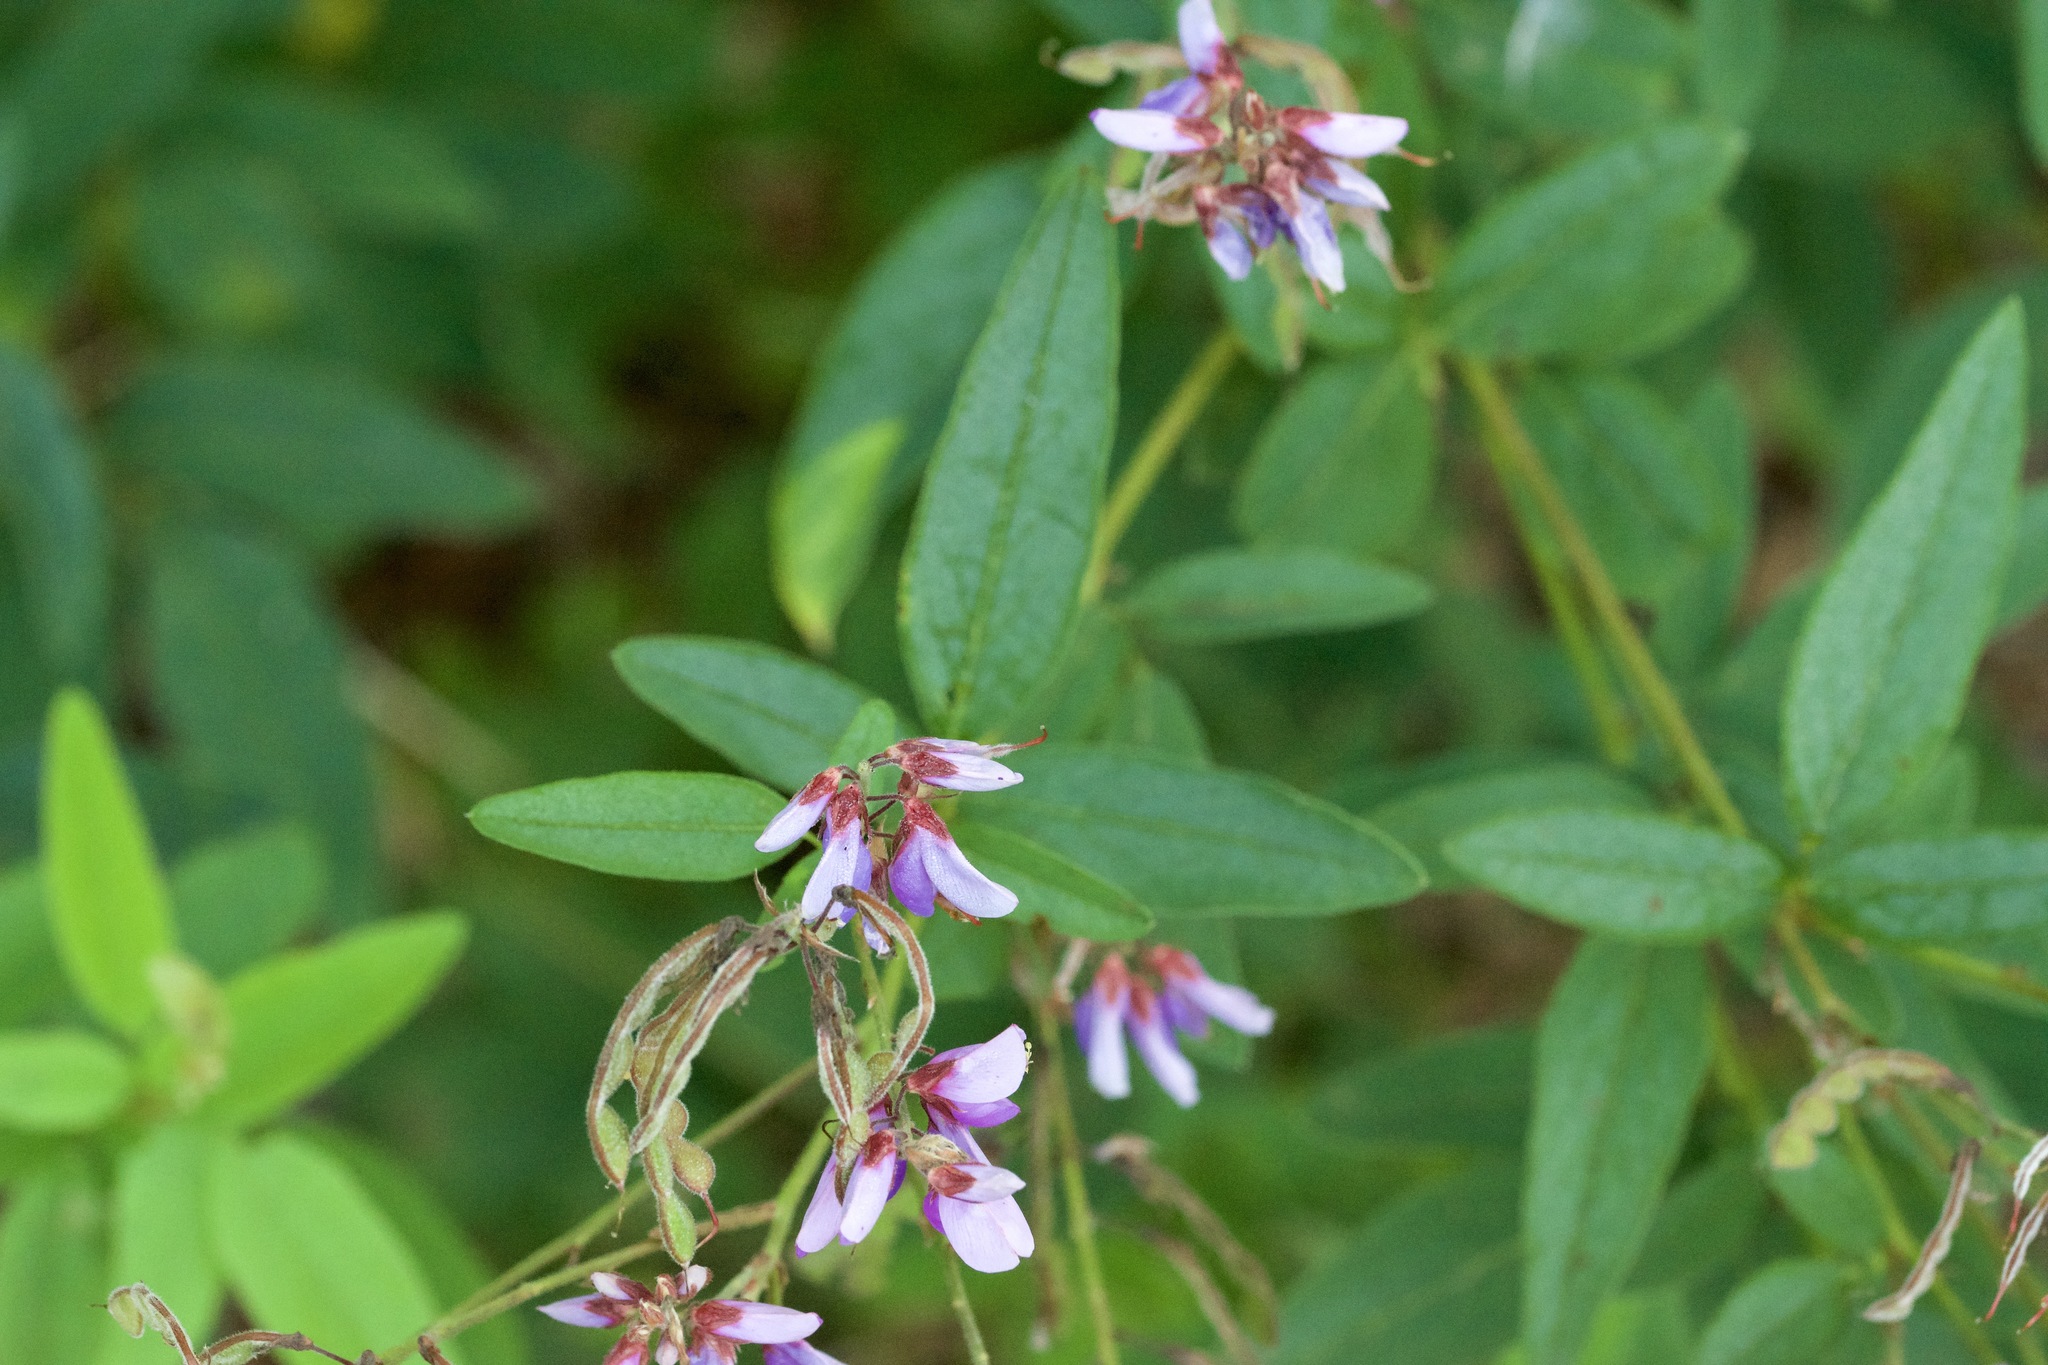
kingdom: Plantae
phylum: Tracheophyta
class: Magnoliopsida
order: Fabales
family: Fabaceae
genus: Desmodium
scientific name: Desmodium canadense
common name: Canada tick-trefoil
